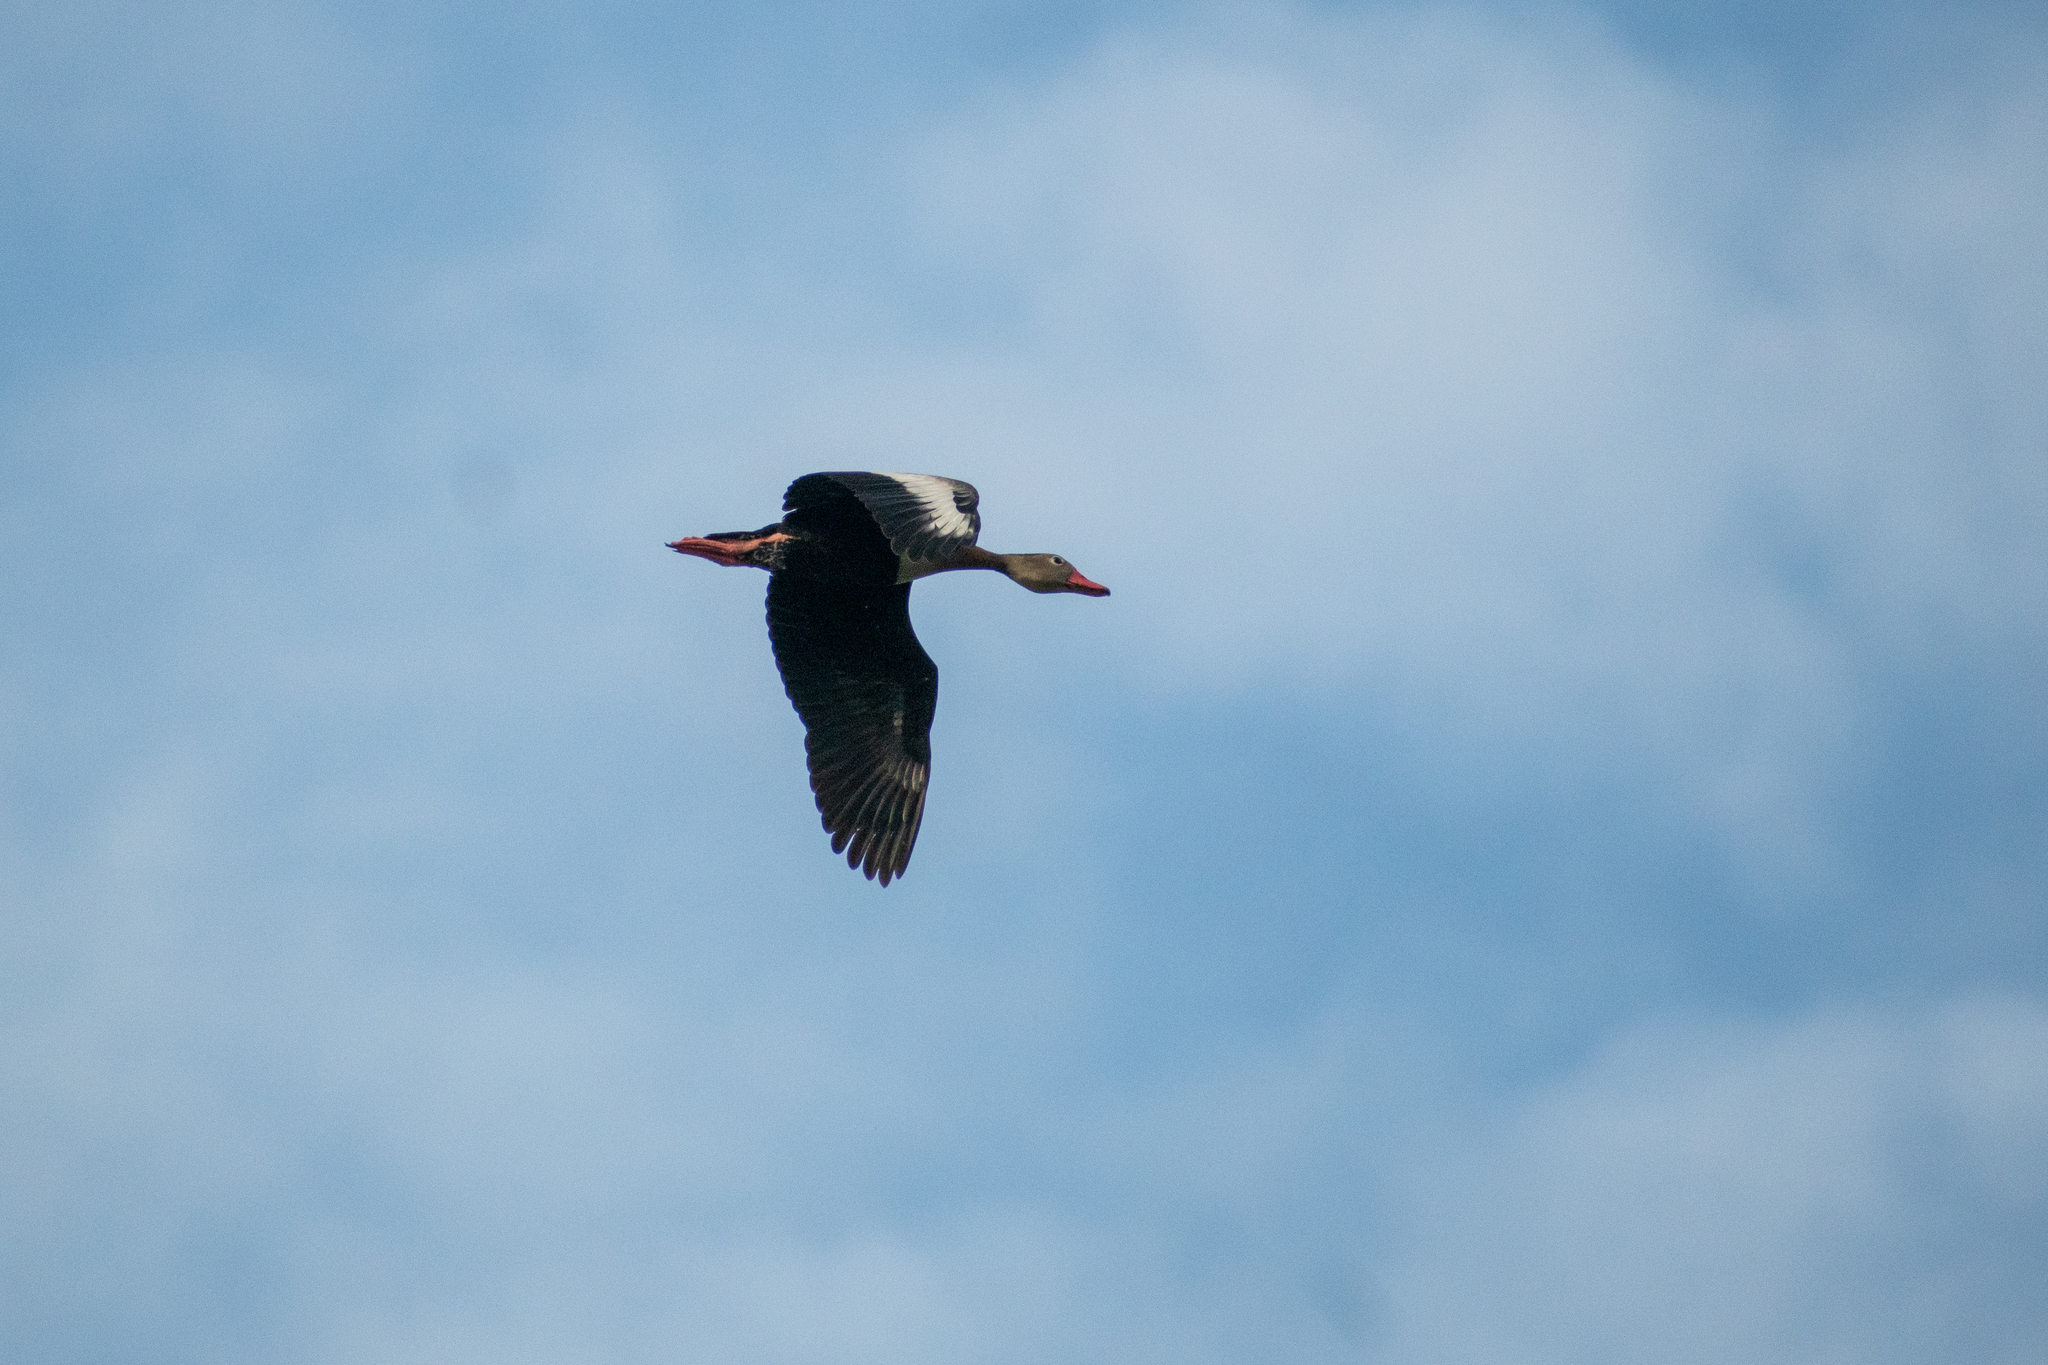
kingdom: Animalia
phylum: Chordata
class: Aves
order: Anseriformes
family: Anatidae
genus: Dendrocygna
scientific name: Dendrocygna autumnalis
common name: Black-bellied whistling duck
